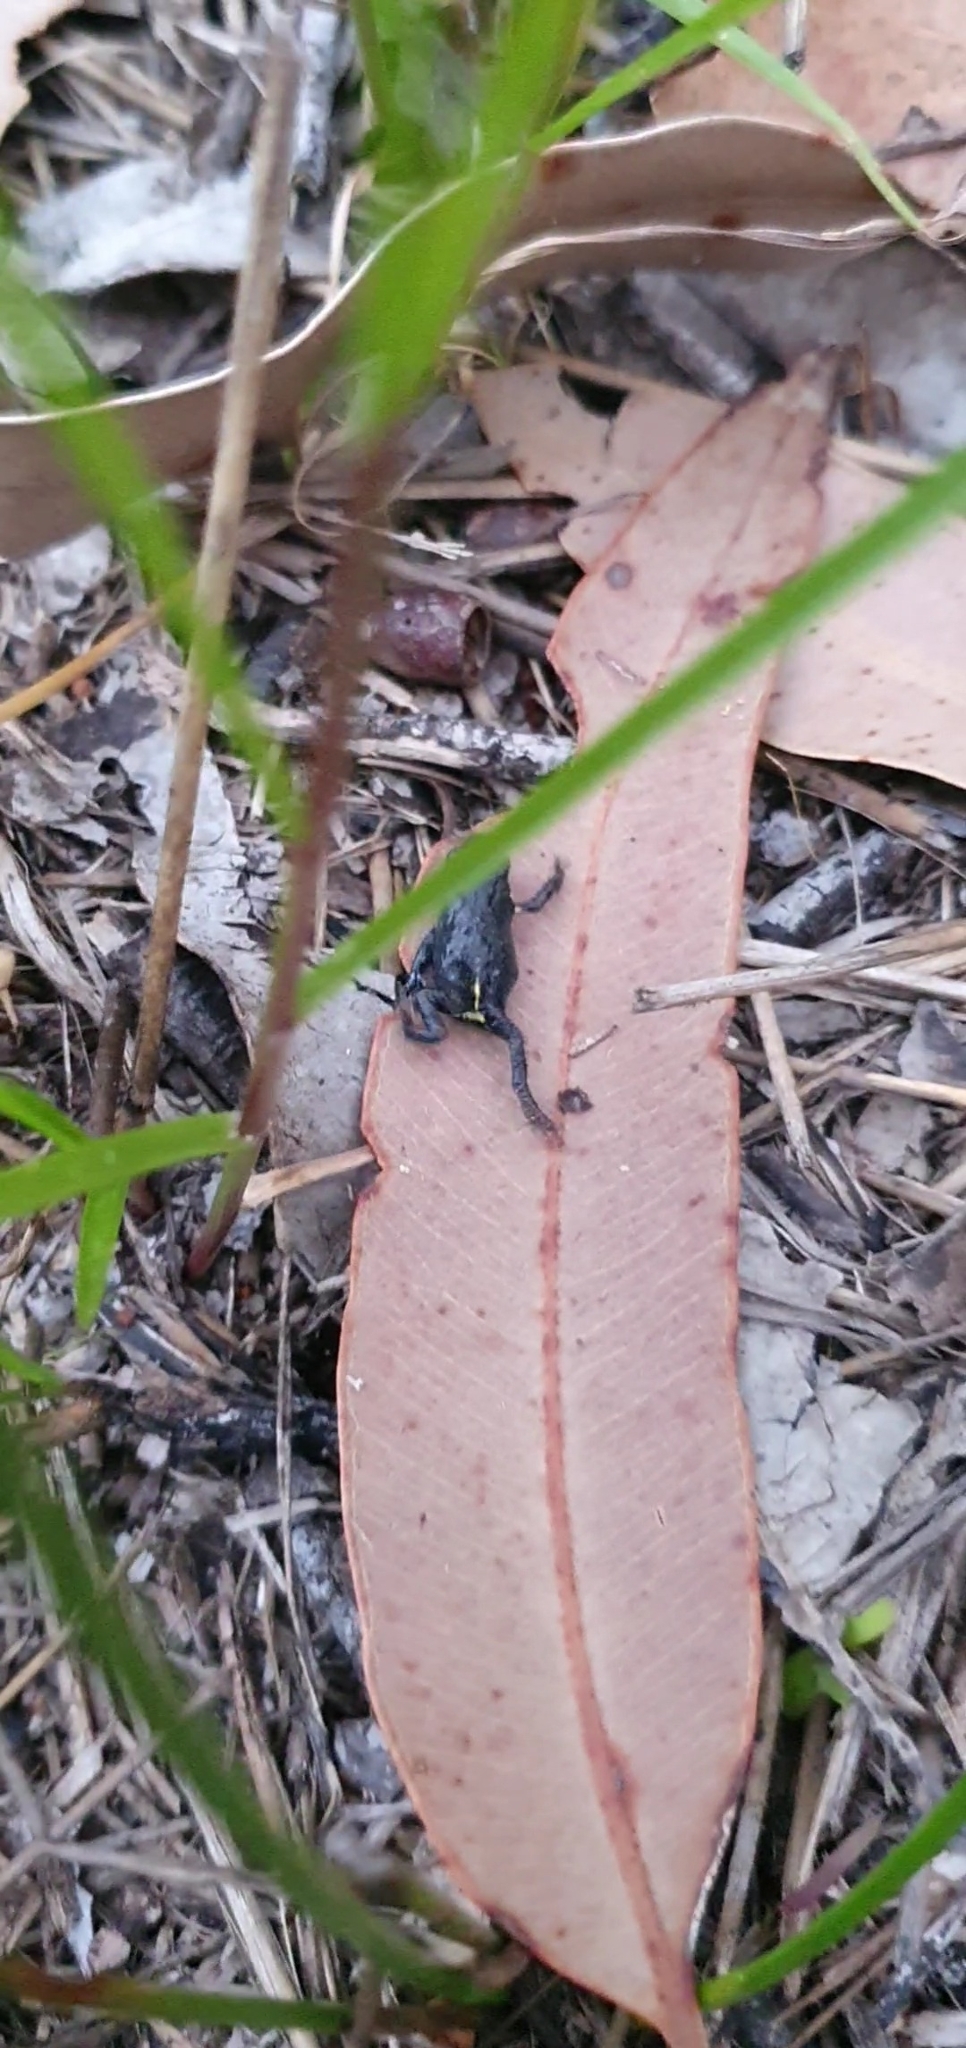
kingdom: Animalia
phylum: Chordata
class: Amphibia
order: Anura
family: Myobatrachidae
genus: Pseudophryne
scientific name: Pseudophryne dendyi
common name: Dendy’s toadlet
